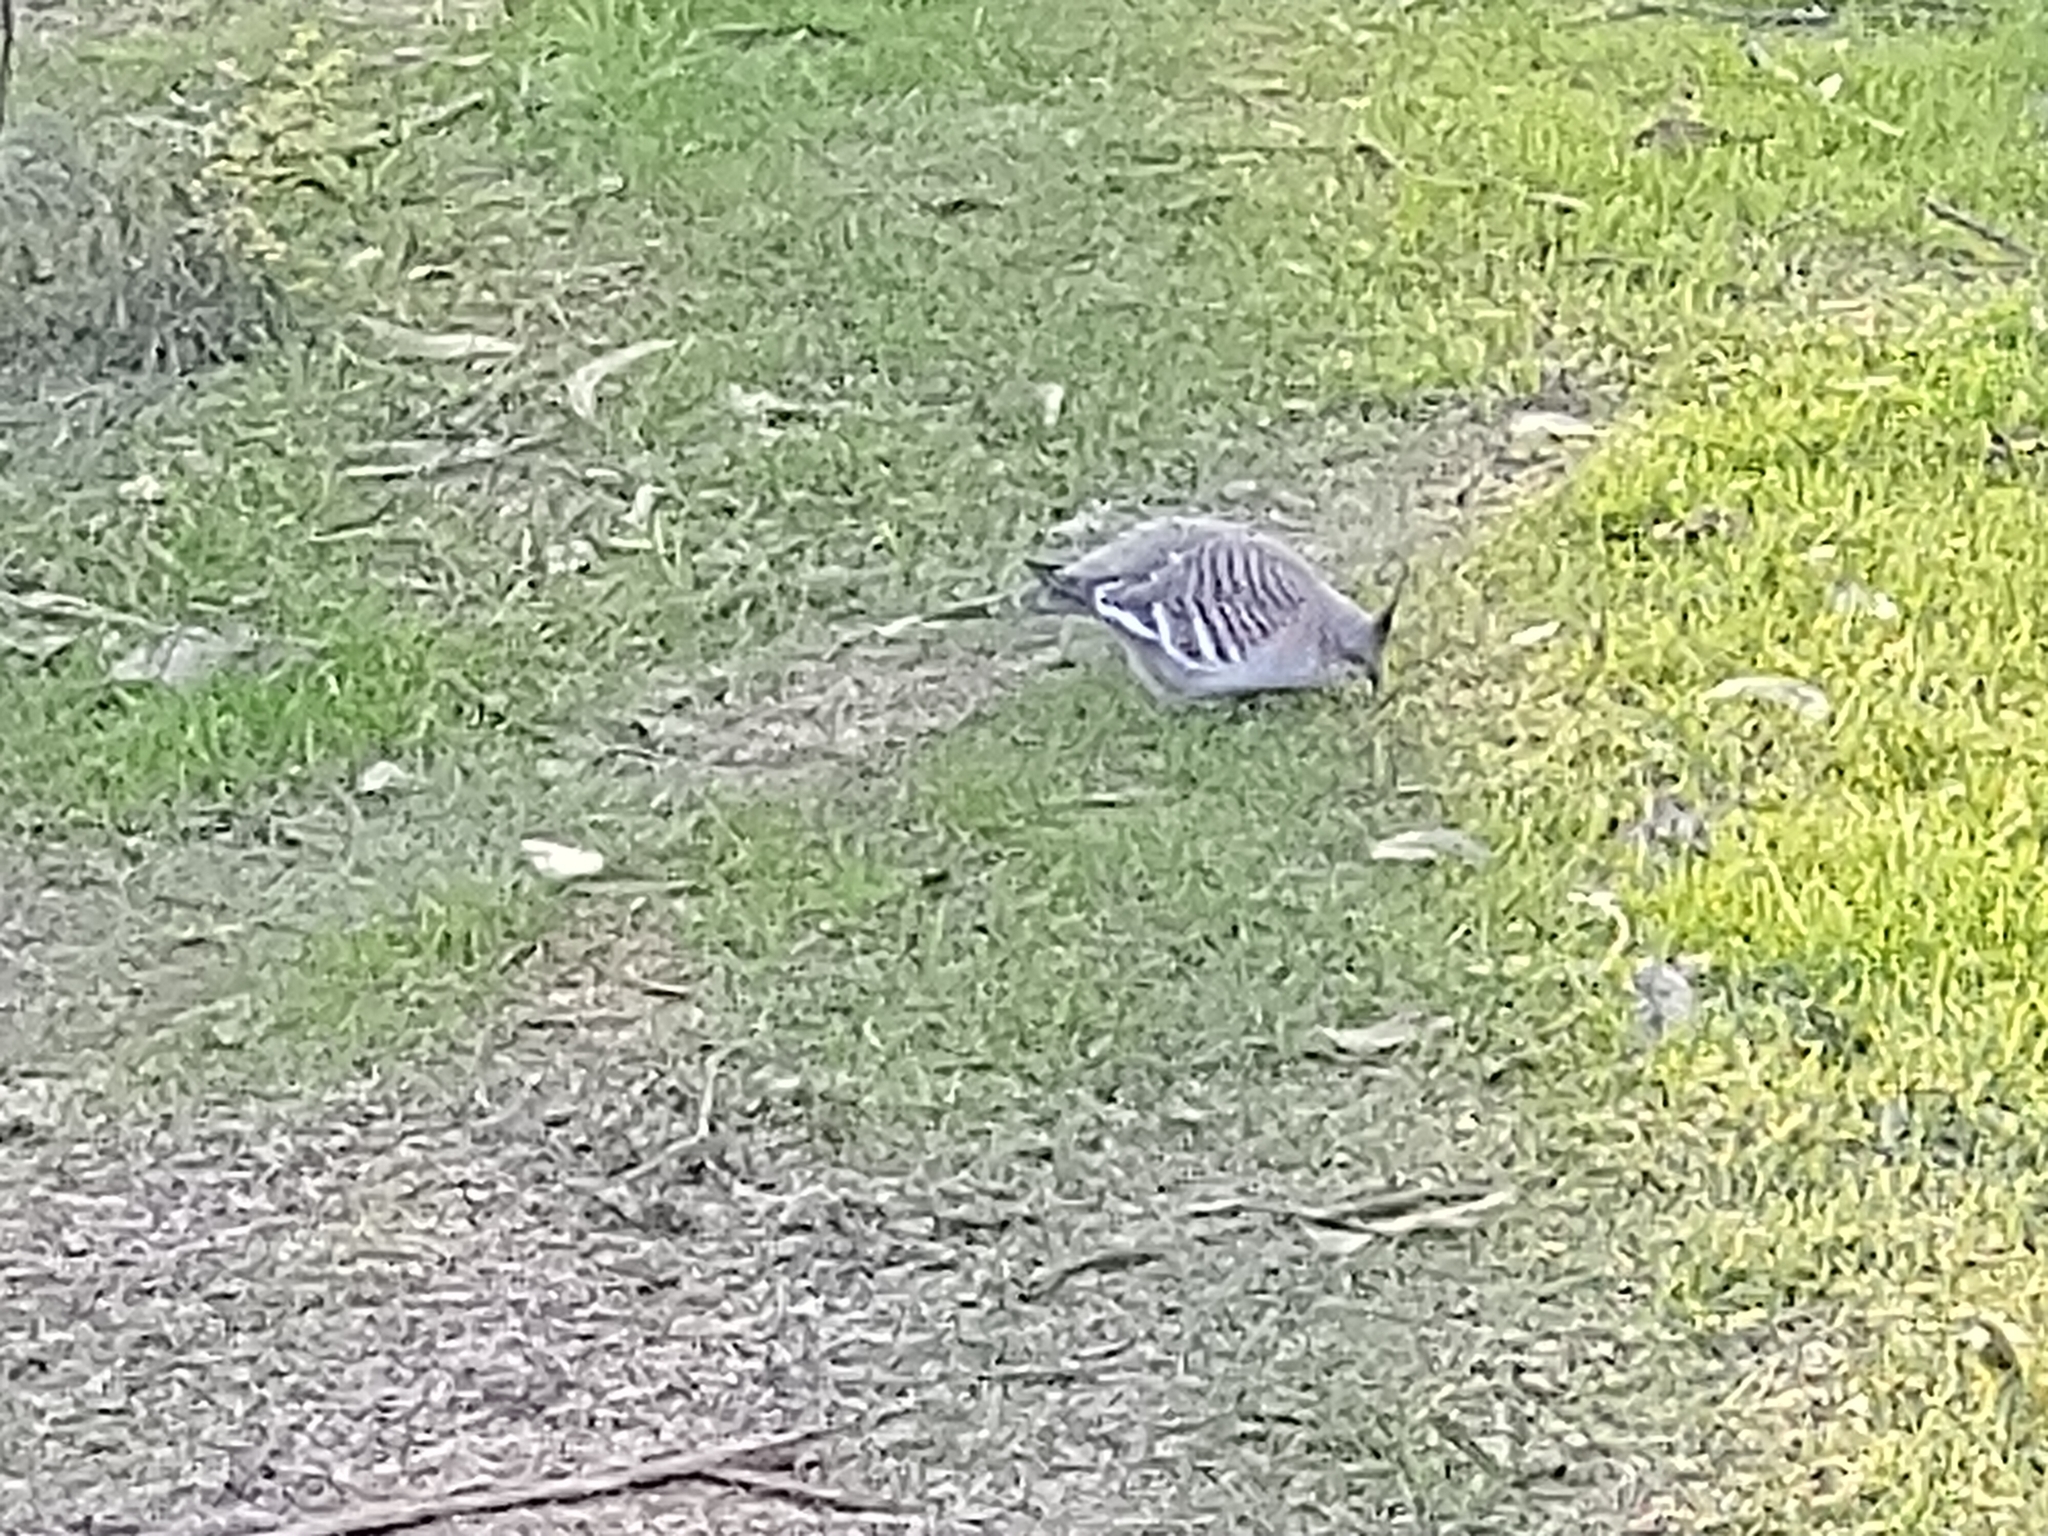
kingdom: Animalia
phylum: Chordata
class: Aves
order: Columbiformes
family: Columbidae
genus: Ocyphaps
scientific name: Ocyphaps lophotes
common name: Crested pigeon
